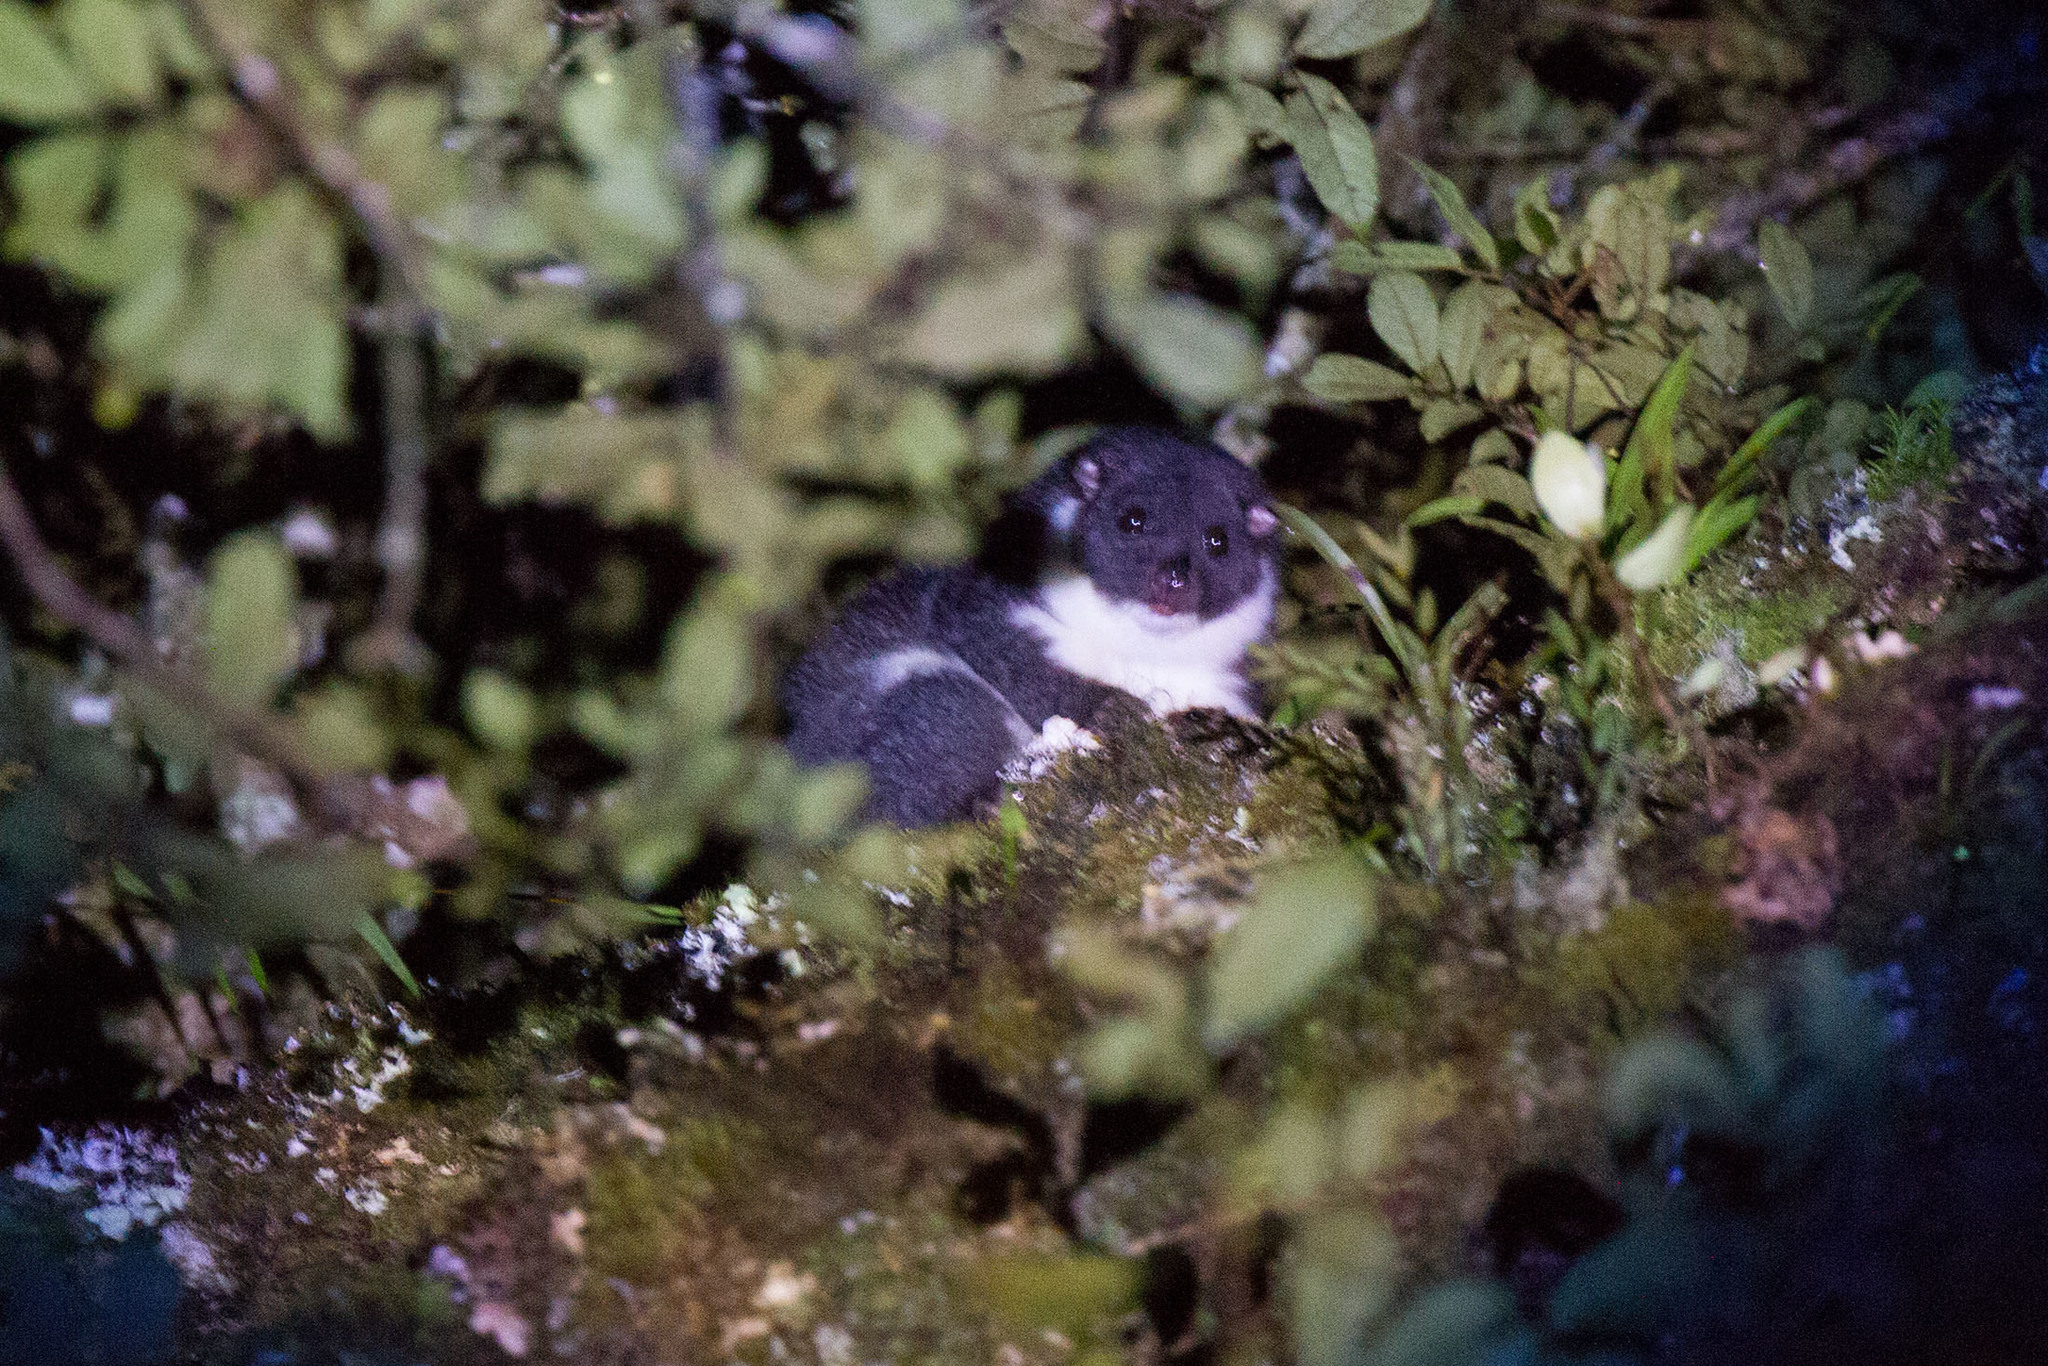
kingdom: Animalia
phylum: Chordata
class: Mammalia
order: Diprotodontia
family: Phalangeridae
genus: Phalanger
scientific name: Phalanger vestitus
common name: Stein's cuscus
